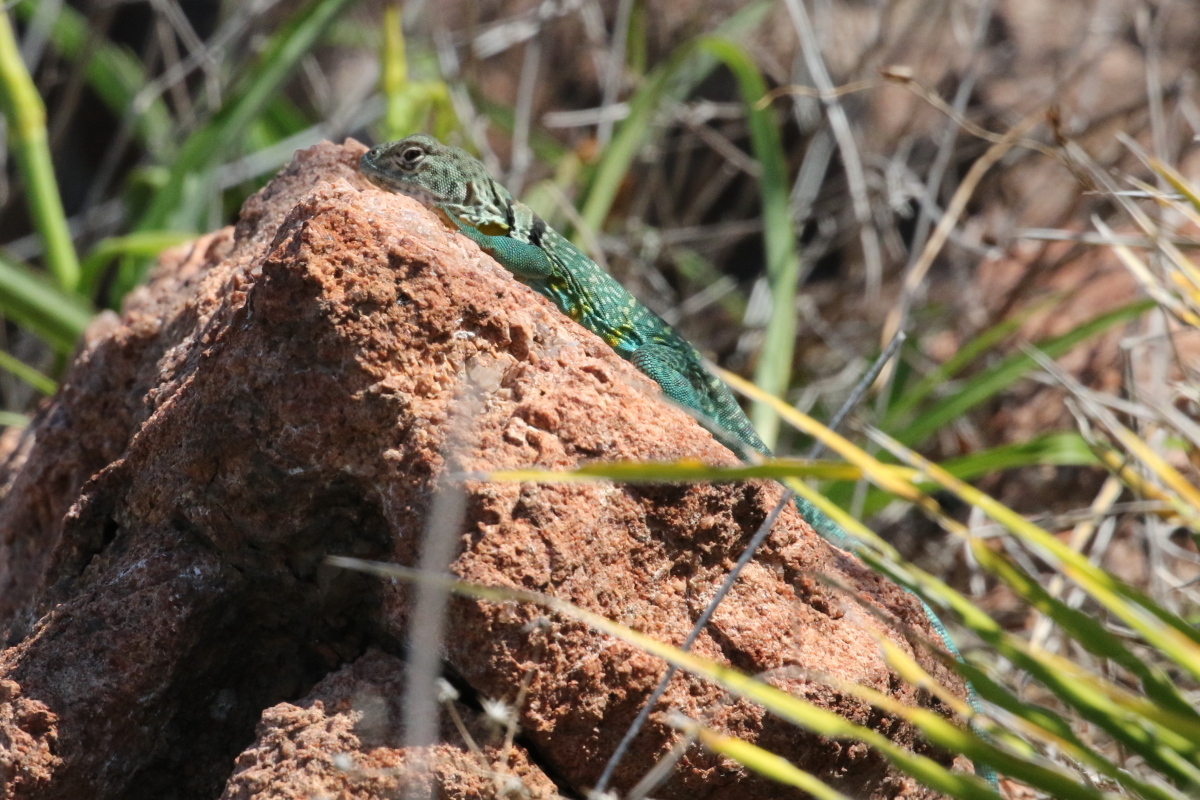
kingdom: Animalia
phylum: Chordata
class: Squamata
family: Crotaphytidae
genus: Crotaphytus
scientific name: Crotaphytus collaris
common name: Collared lizard
